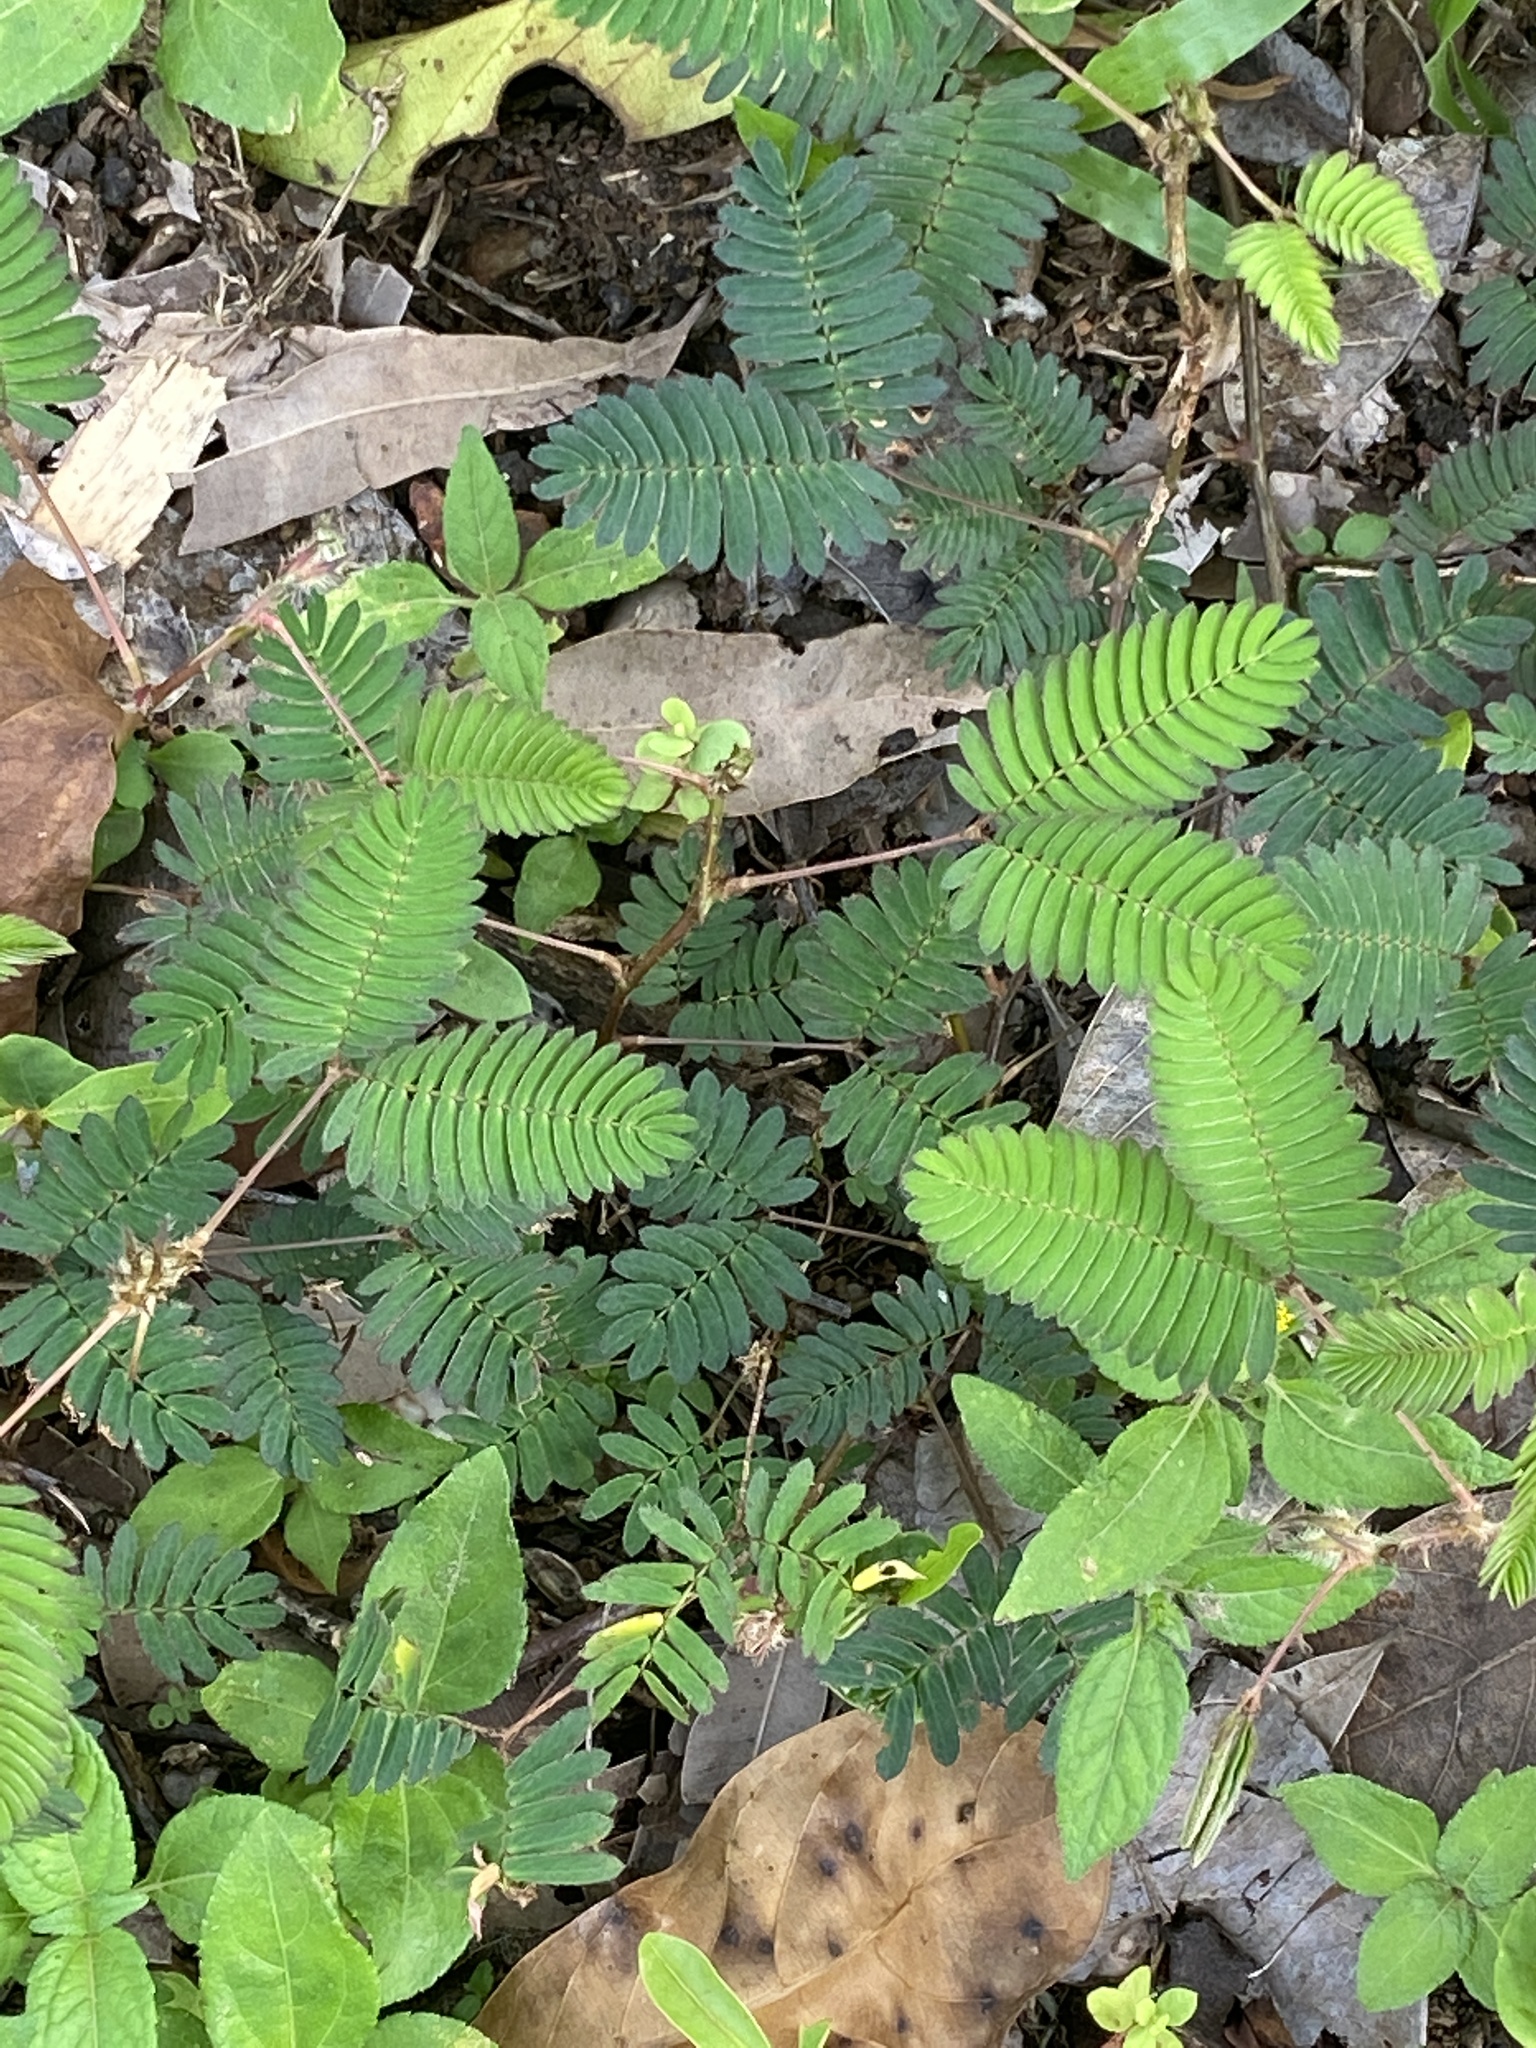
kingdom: Plantae
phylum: Tracheophyta
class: Magnoliopsida
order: Fabales
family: Fabaceae
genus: Mimosa
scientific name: Mimosa pudica
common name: Sensitive plant
